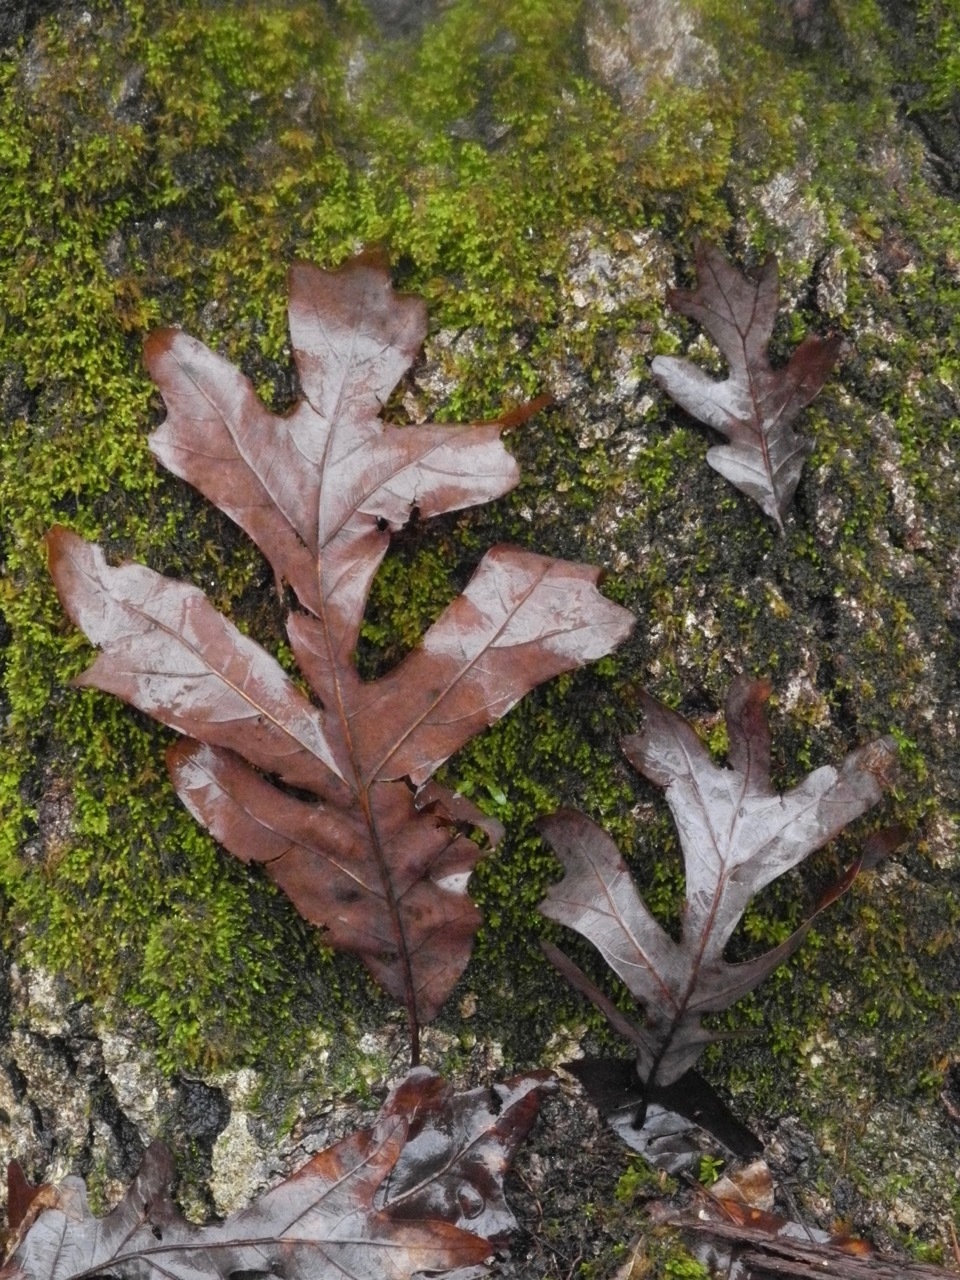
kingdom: Plantae
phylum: Tracheophyta
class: Magnoliopsida
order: Fagales
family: Fagaceae
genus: Quercus
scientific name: Quercus alba
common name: White oak
